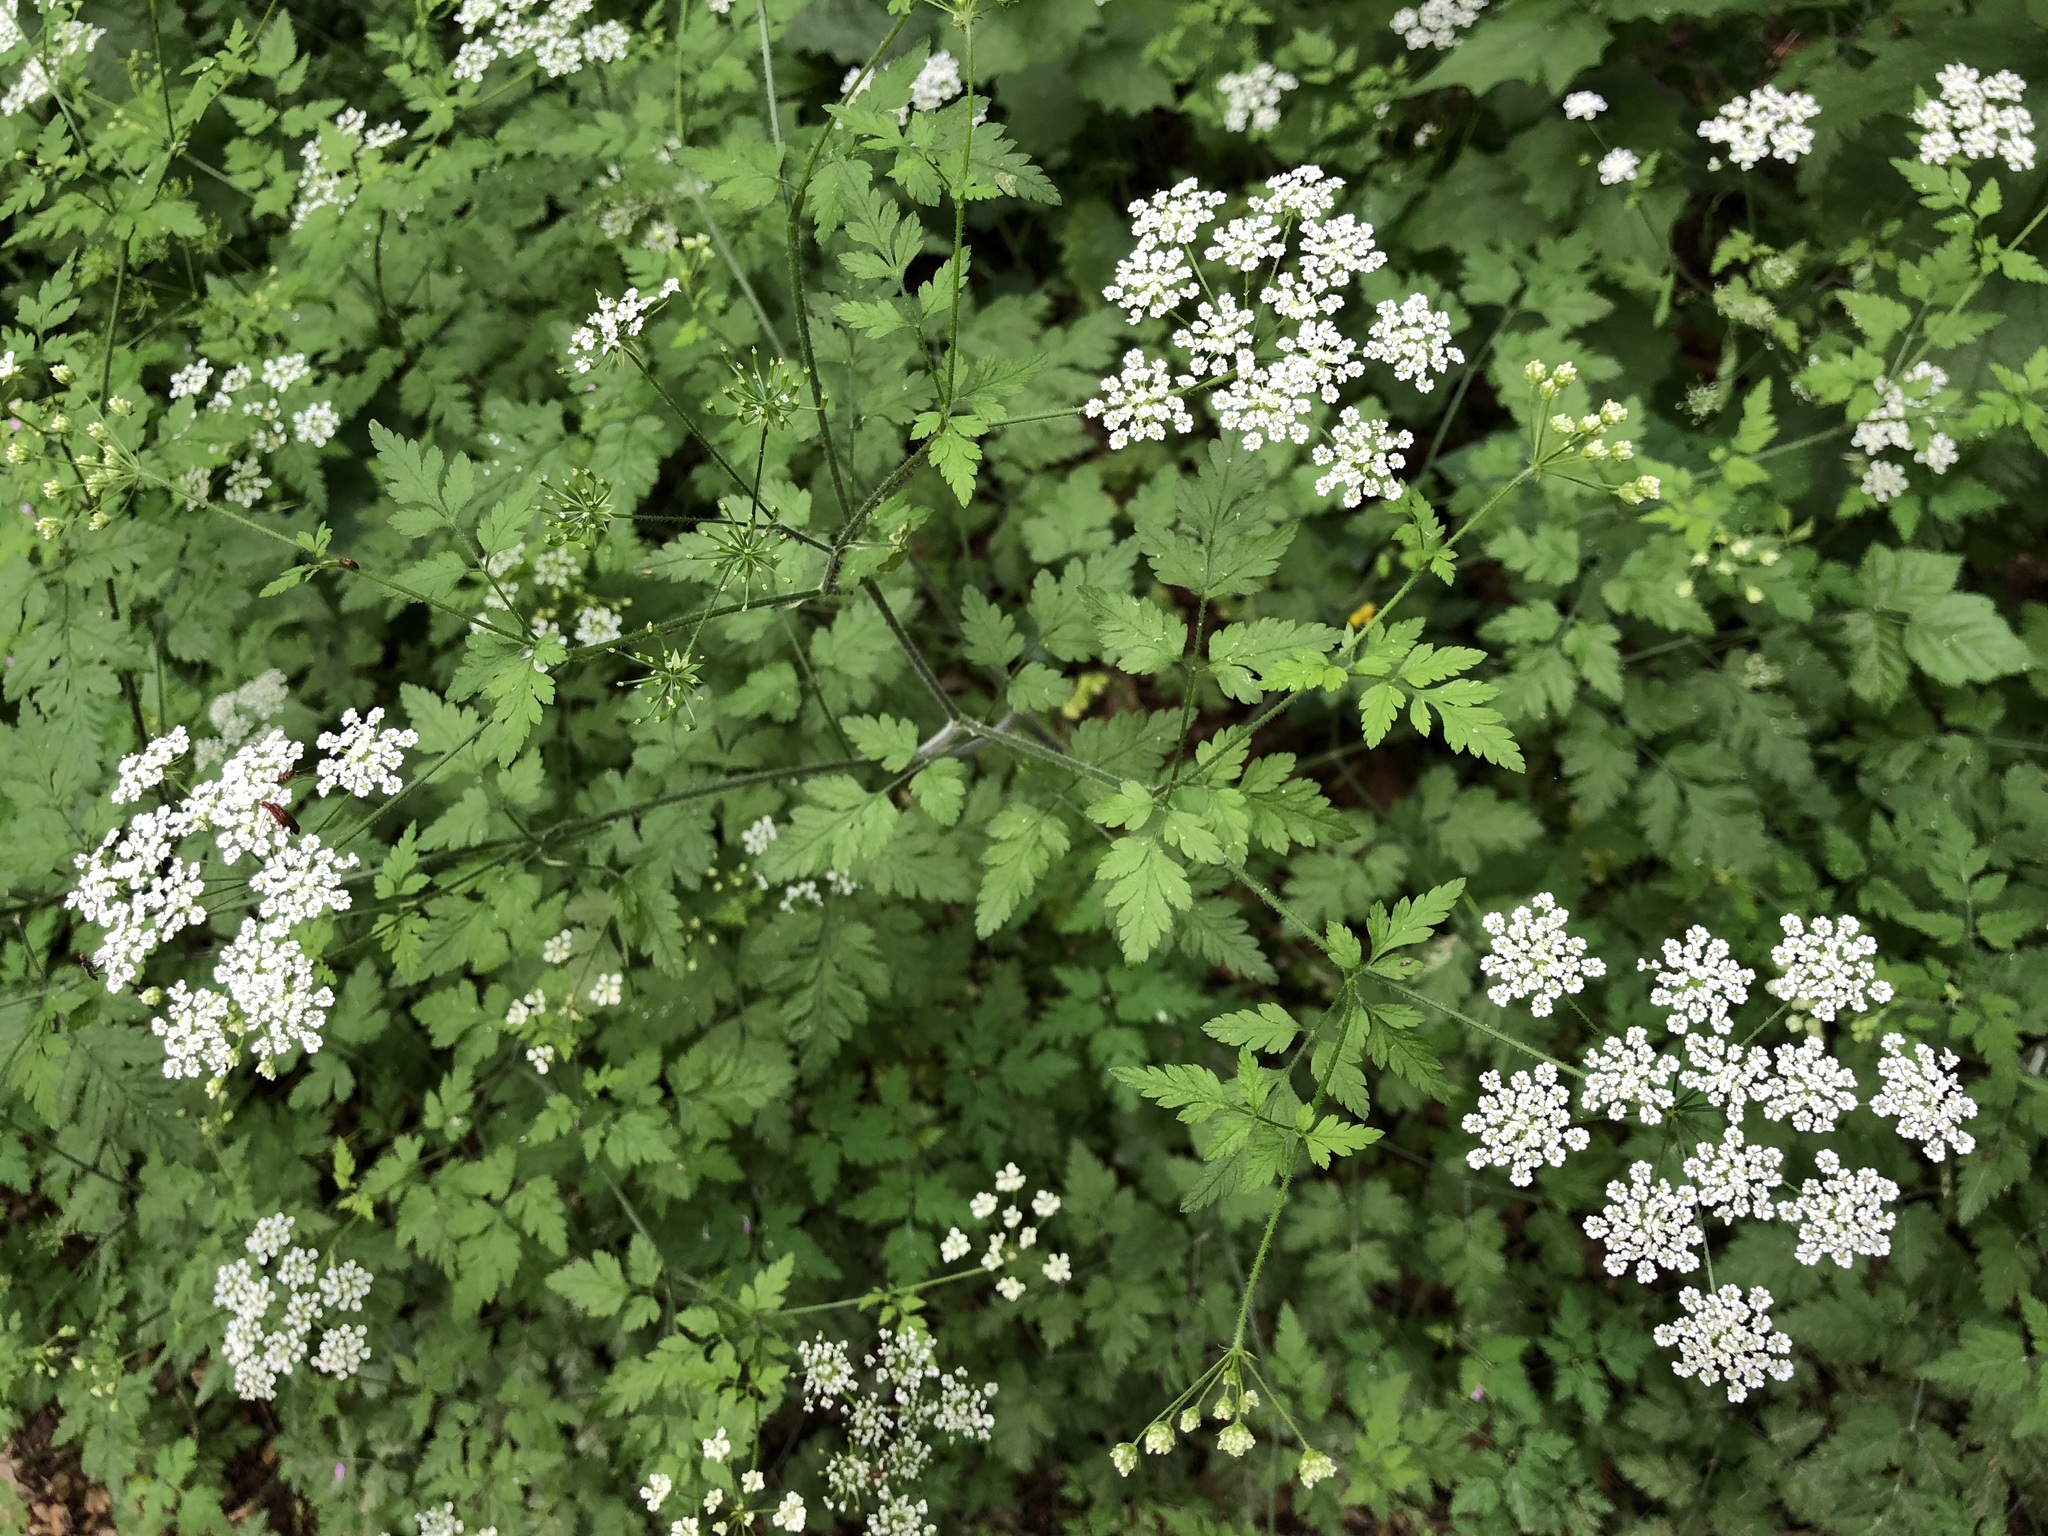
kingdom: Plantae
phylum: Tracheophyta
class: Magnoliopsida
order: Apiales
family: Apiaceae
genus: Chaerophyllum
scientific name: Chaerophyllum temulum
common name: Rough chervil
